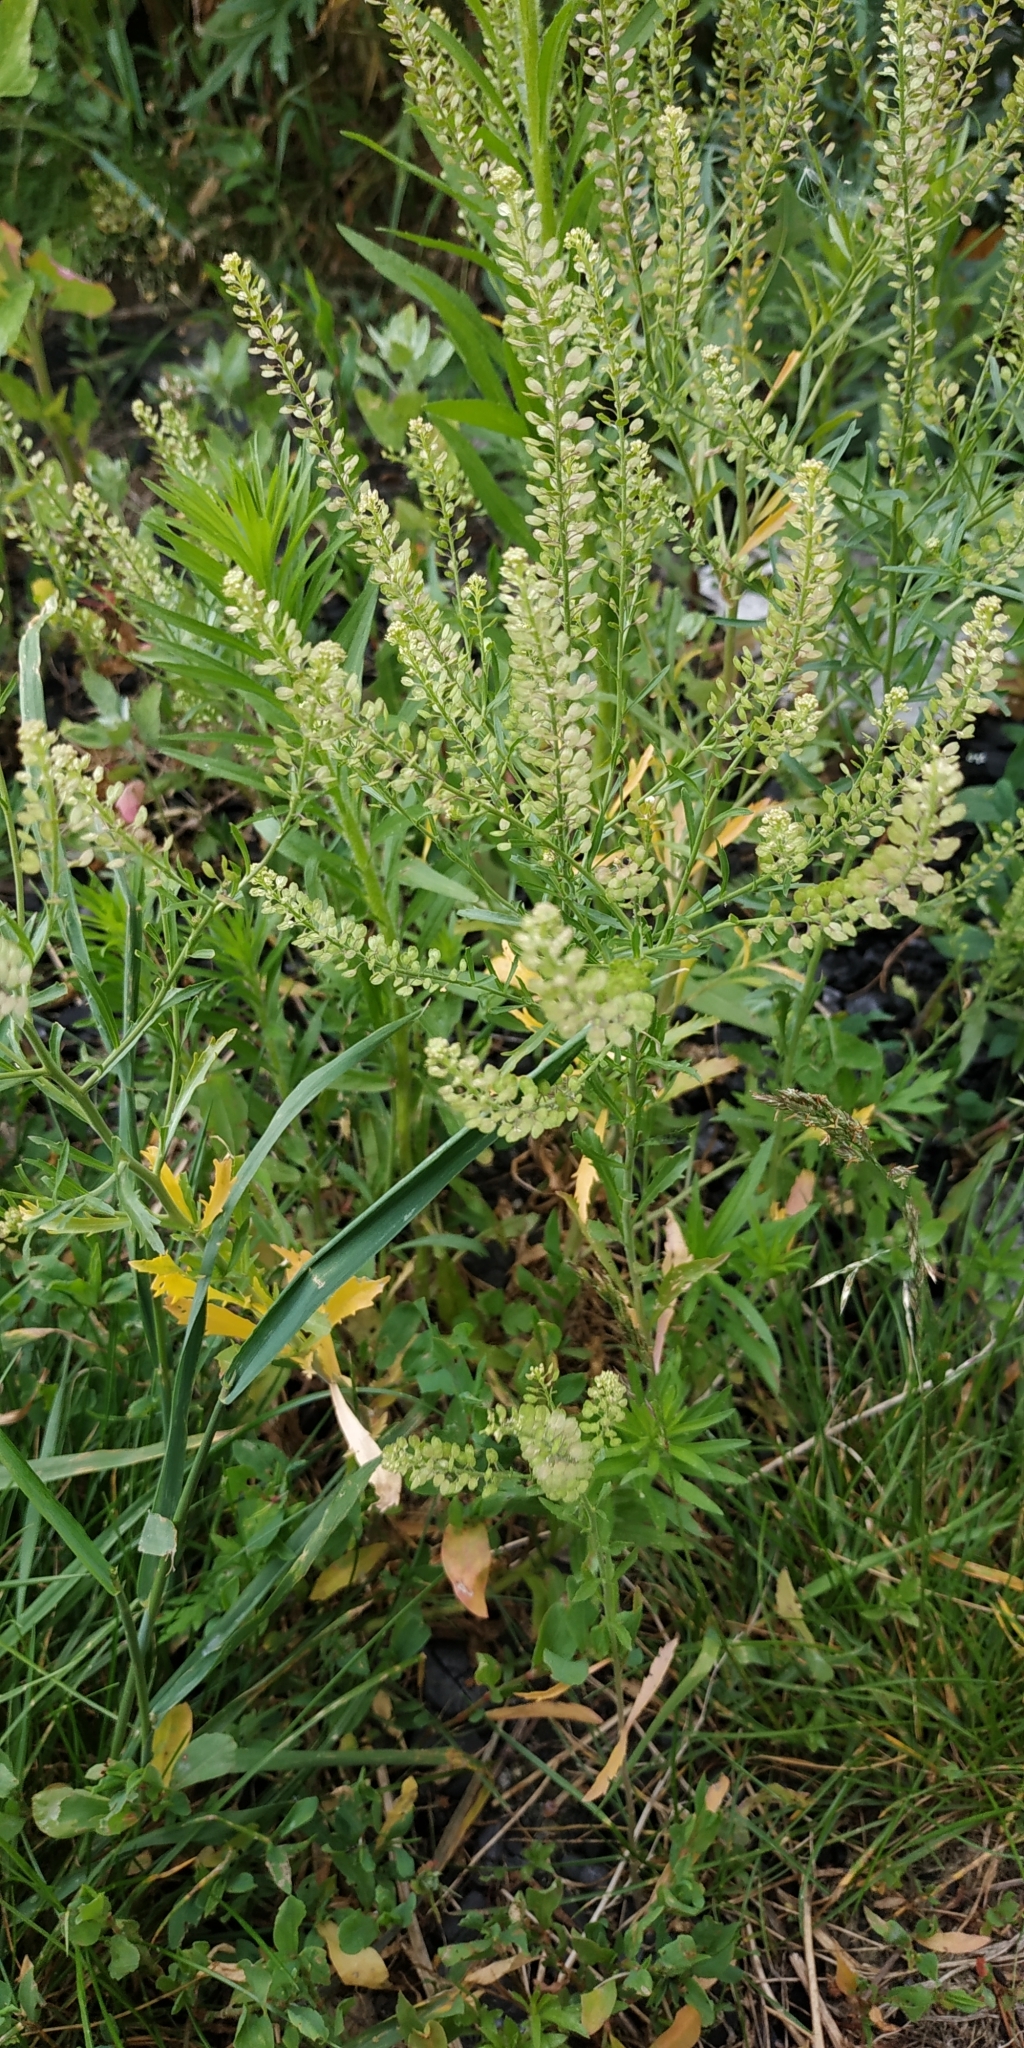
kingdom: Plantae
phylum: Tracheophyta
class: Magnoliopsida
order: Brassicales
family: Brassicaceae
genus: Lepidium
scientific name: Lepidium densiflorum
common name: Miner's pepperwort
